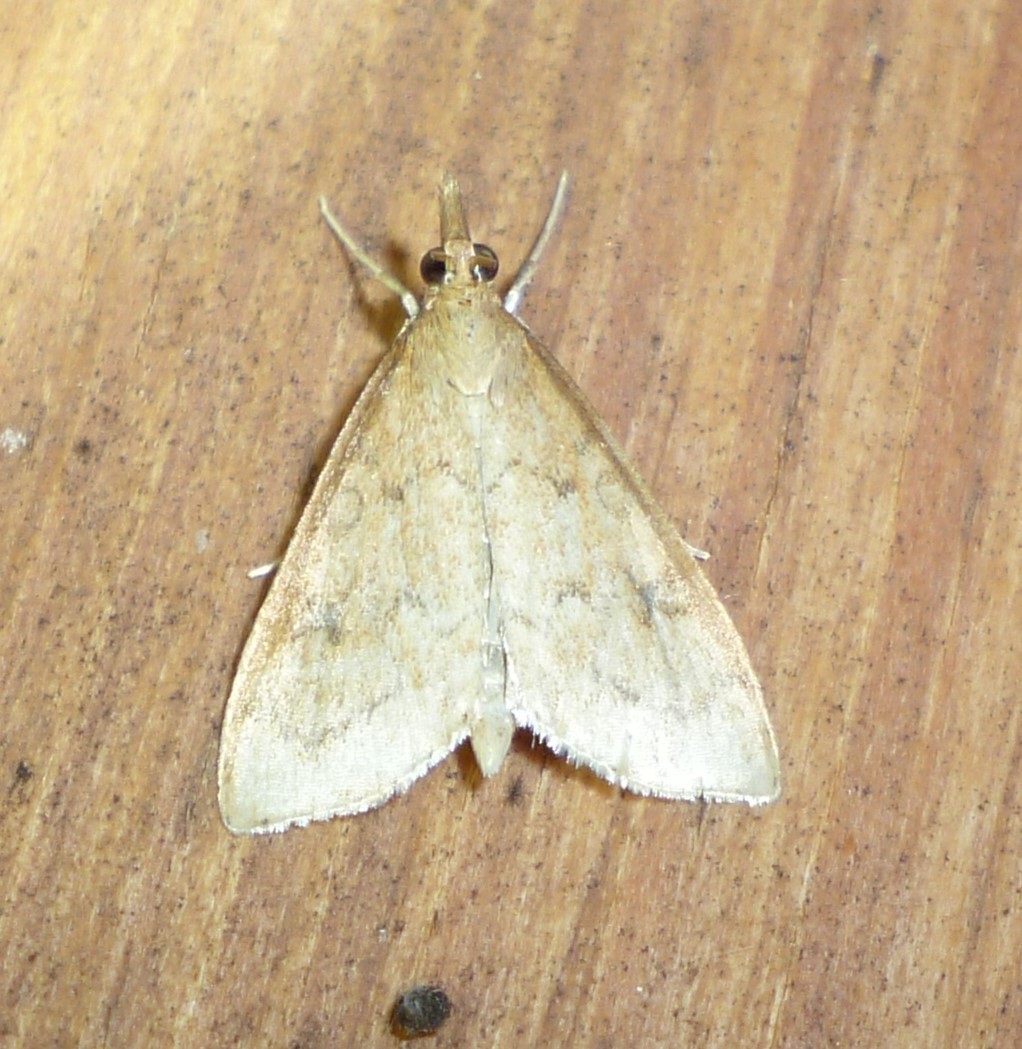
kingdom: Animalia
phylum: Arthropoda
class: Insecta
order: Lepidoptera
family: Crambidae
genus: Udea
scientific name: Udea rubigalis
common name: Celery leaftier moth
